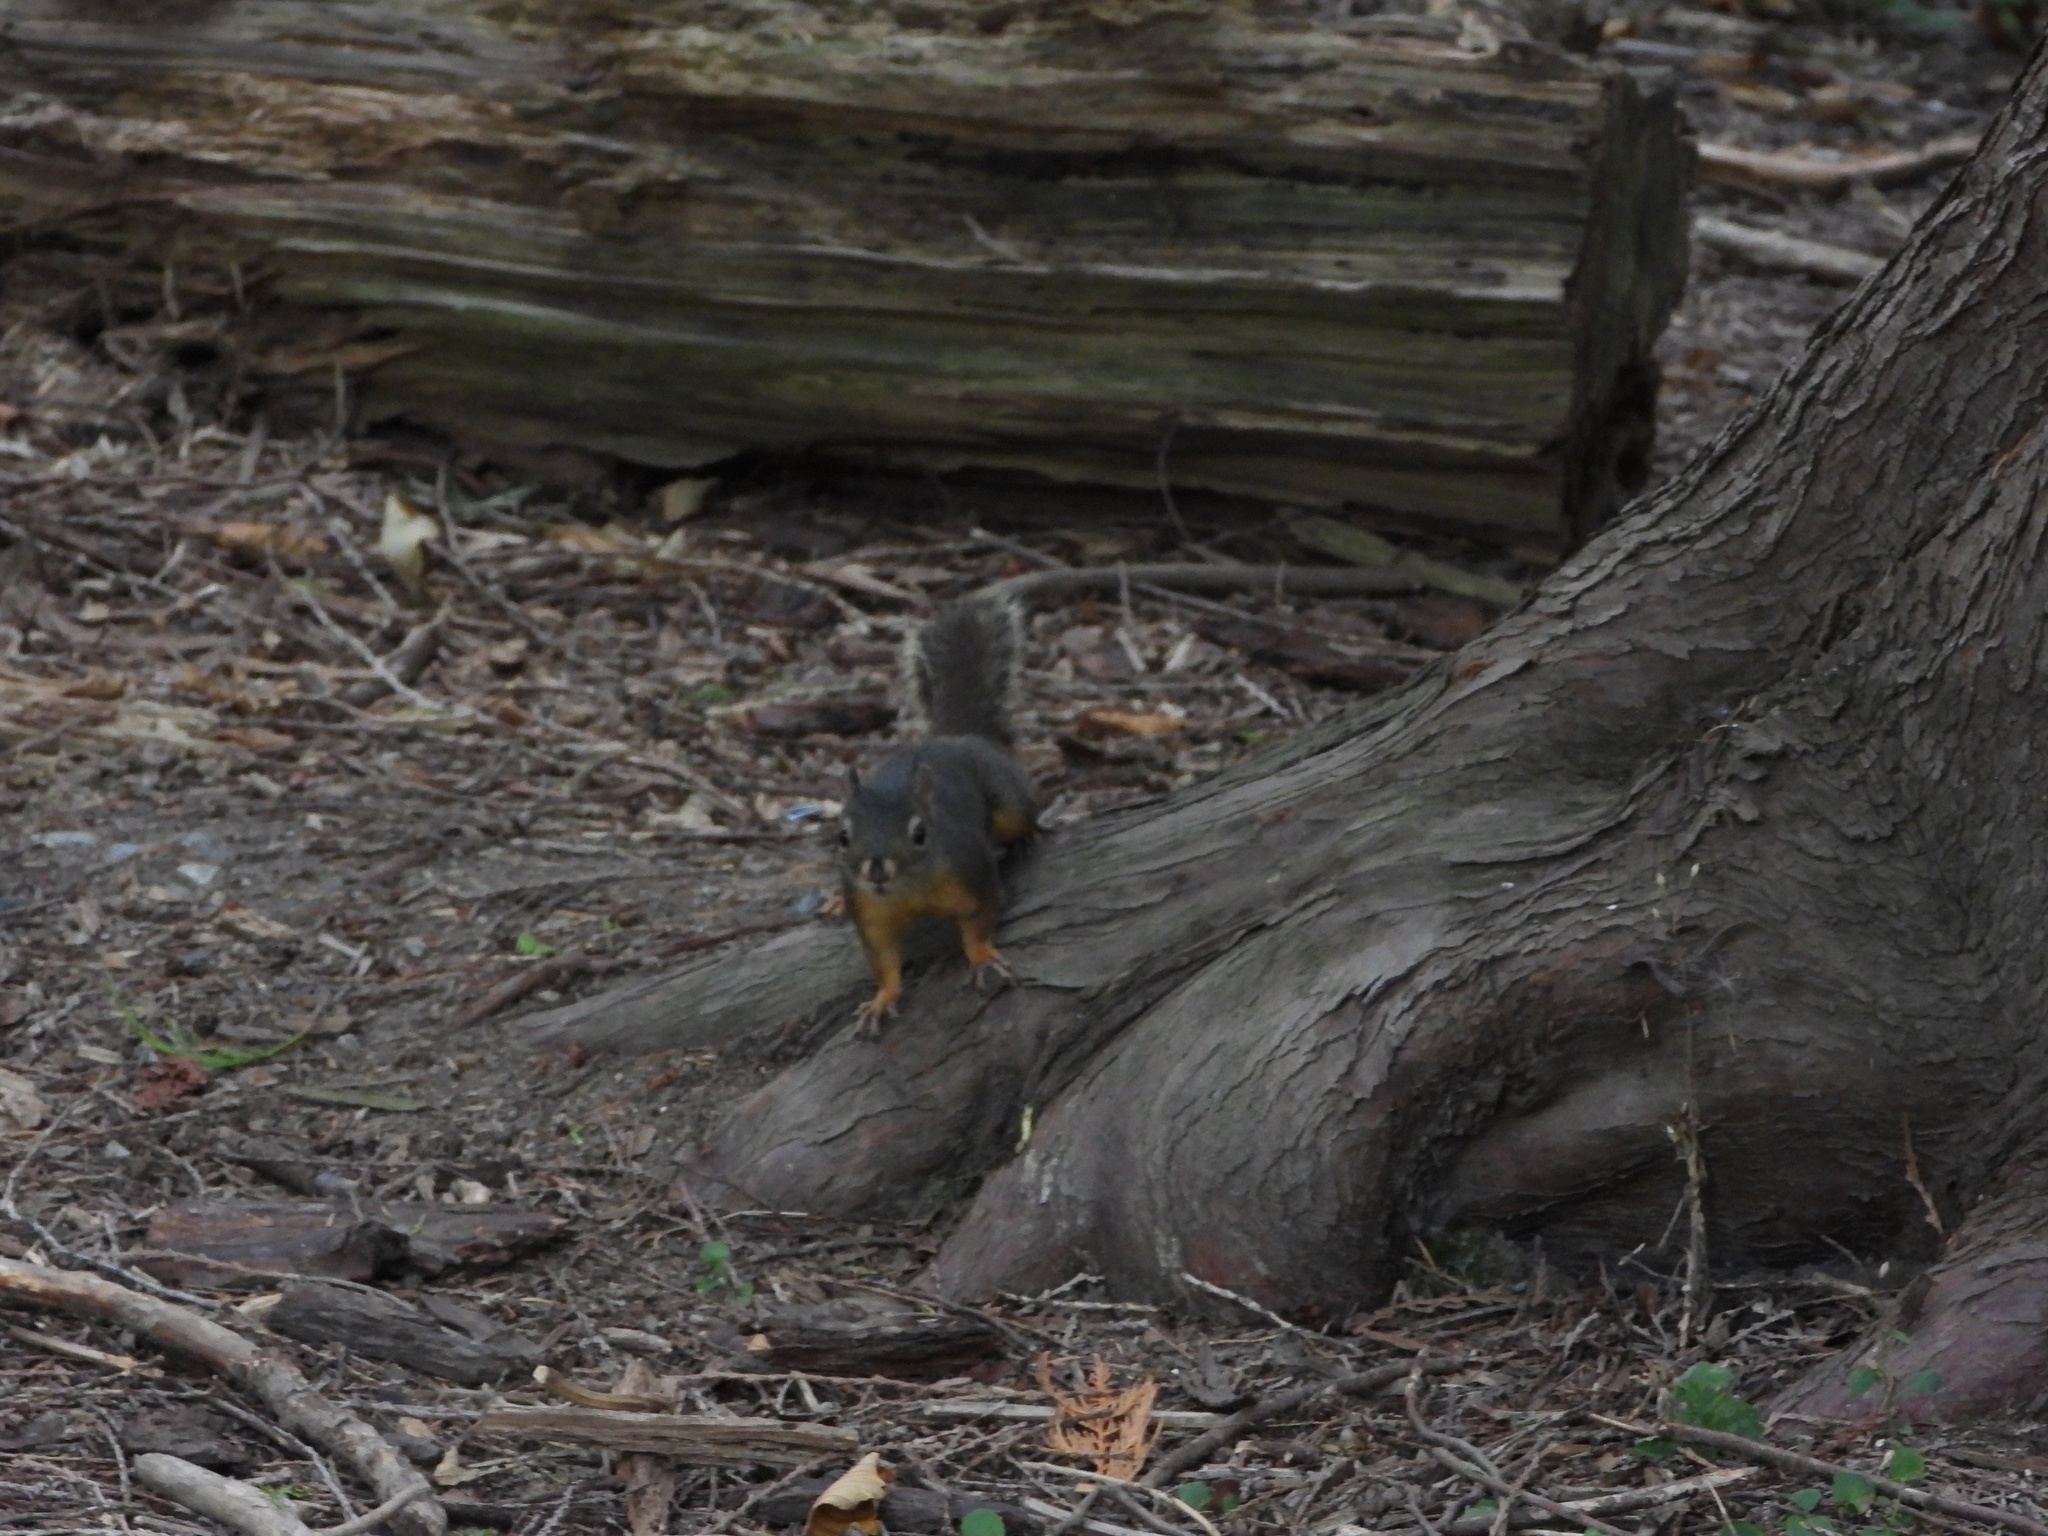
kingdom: Animalia
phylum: Chordata
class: Mammalia
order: Rodentia
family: Sciuridae
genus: Tamiasciurus
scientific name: Tamiasciurus douglasii
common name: Douglas's squirrel
